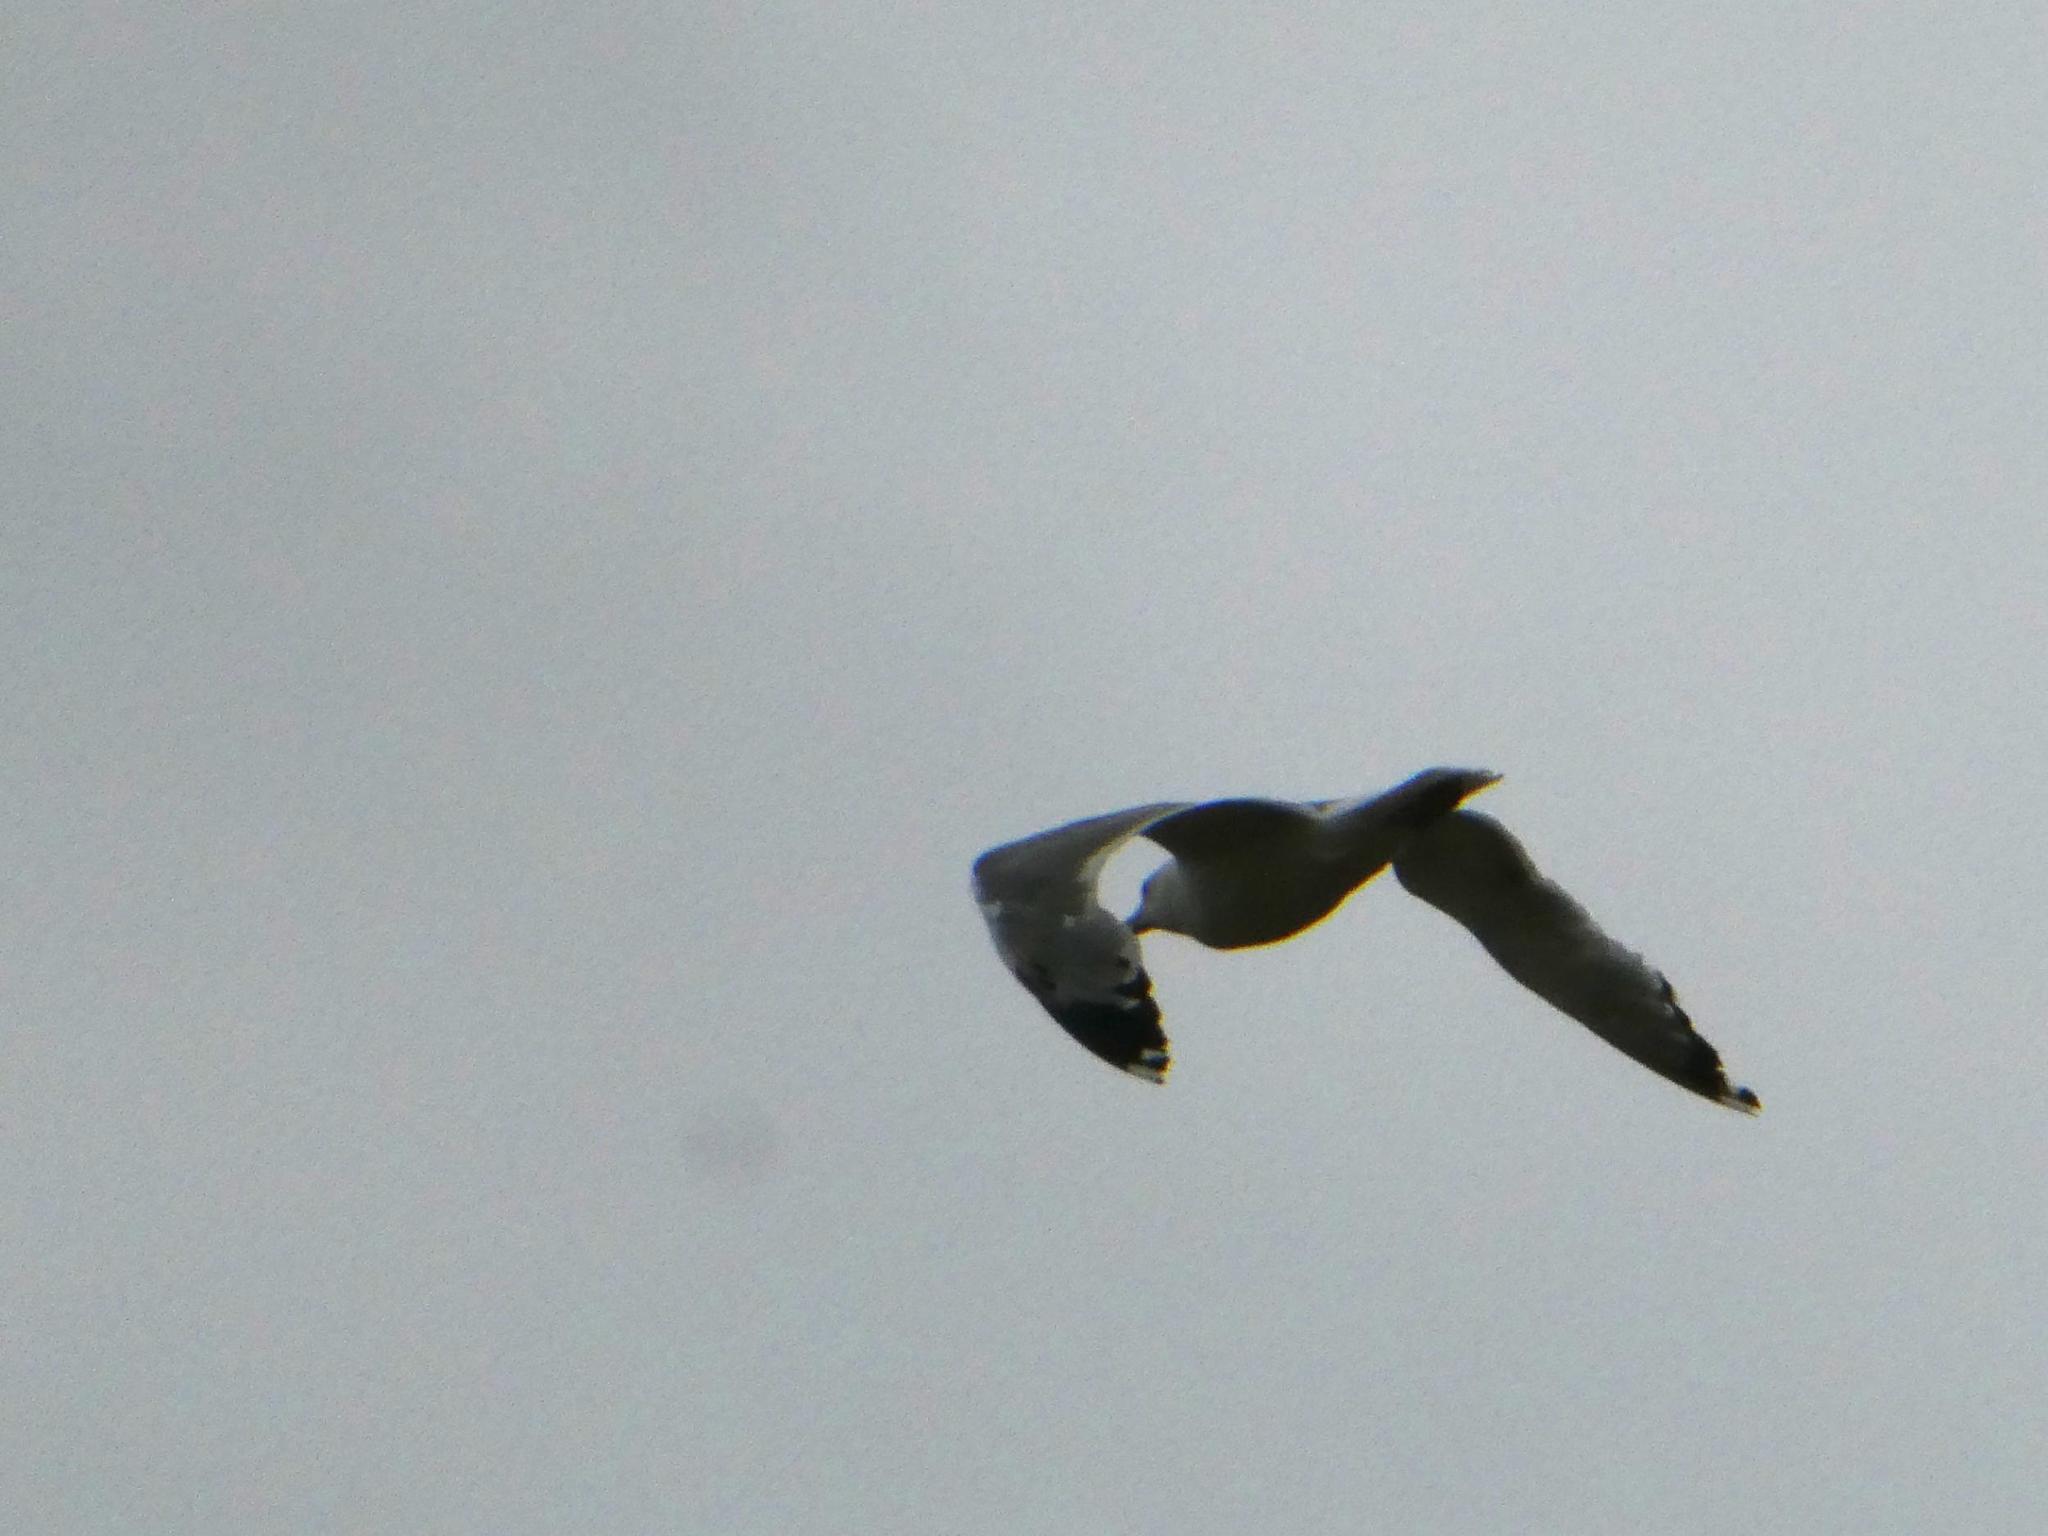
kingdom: Animalia
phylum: Chordata
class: Aves
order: Charadriiformes
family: Laridae
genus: Larus
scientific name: Larus argentatus
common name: Herring gull
